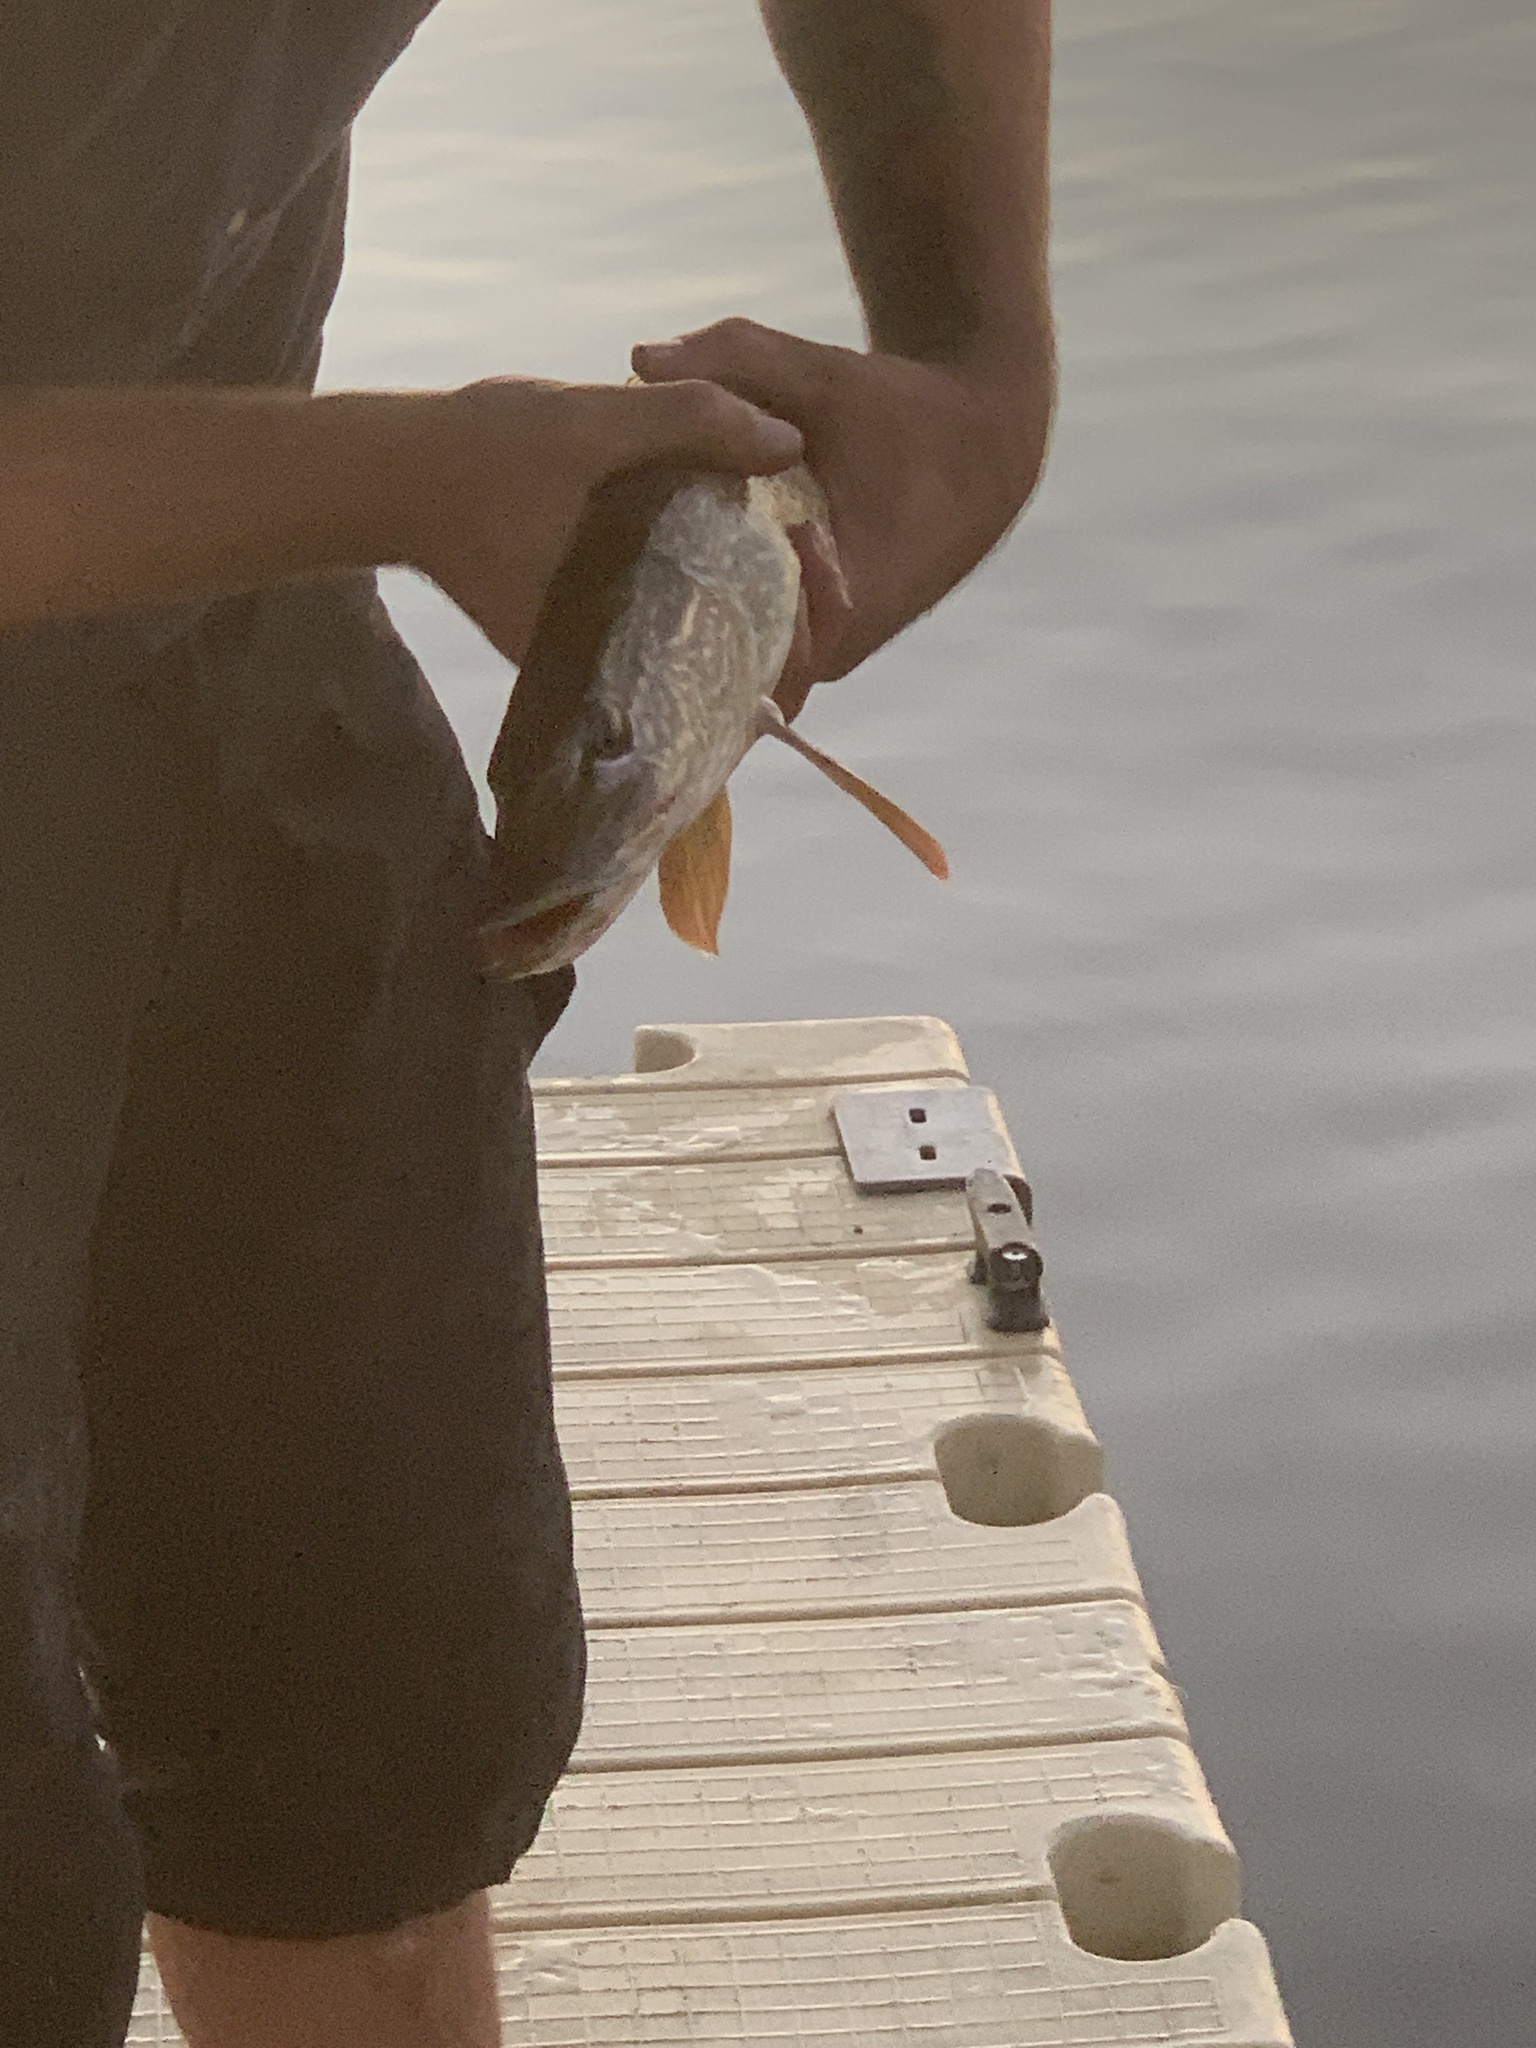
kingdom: Animalia
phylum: Chordata
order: Esociformes
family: Esocidae
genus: Esox
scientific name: Esox lucius
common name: Northern pike
